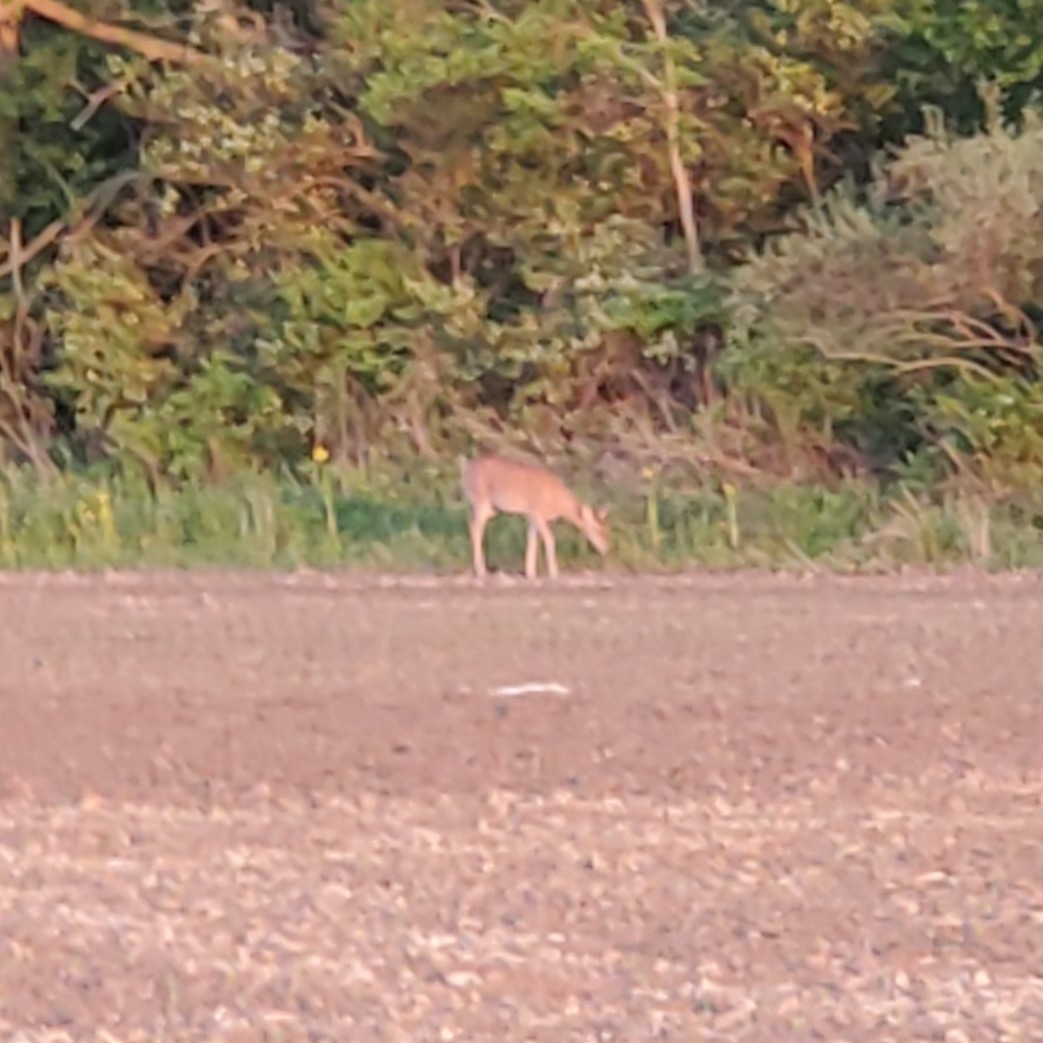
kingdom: Animalia
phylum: Chordata
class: Mammalia
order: Artiodactyla
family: Cervidae
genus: Odocoileus
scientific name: Odocoileus virginianus
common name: White-tailed deer
